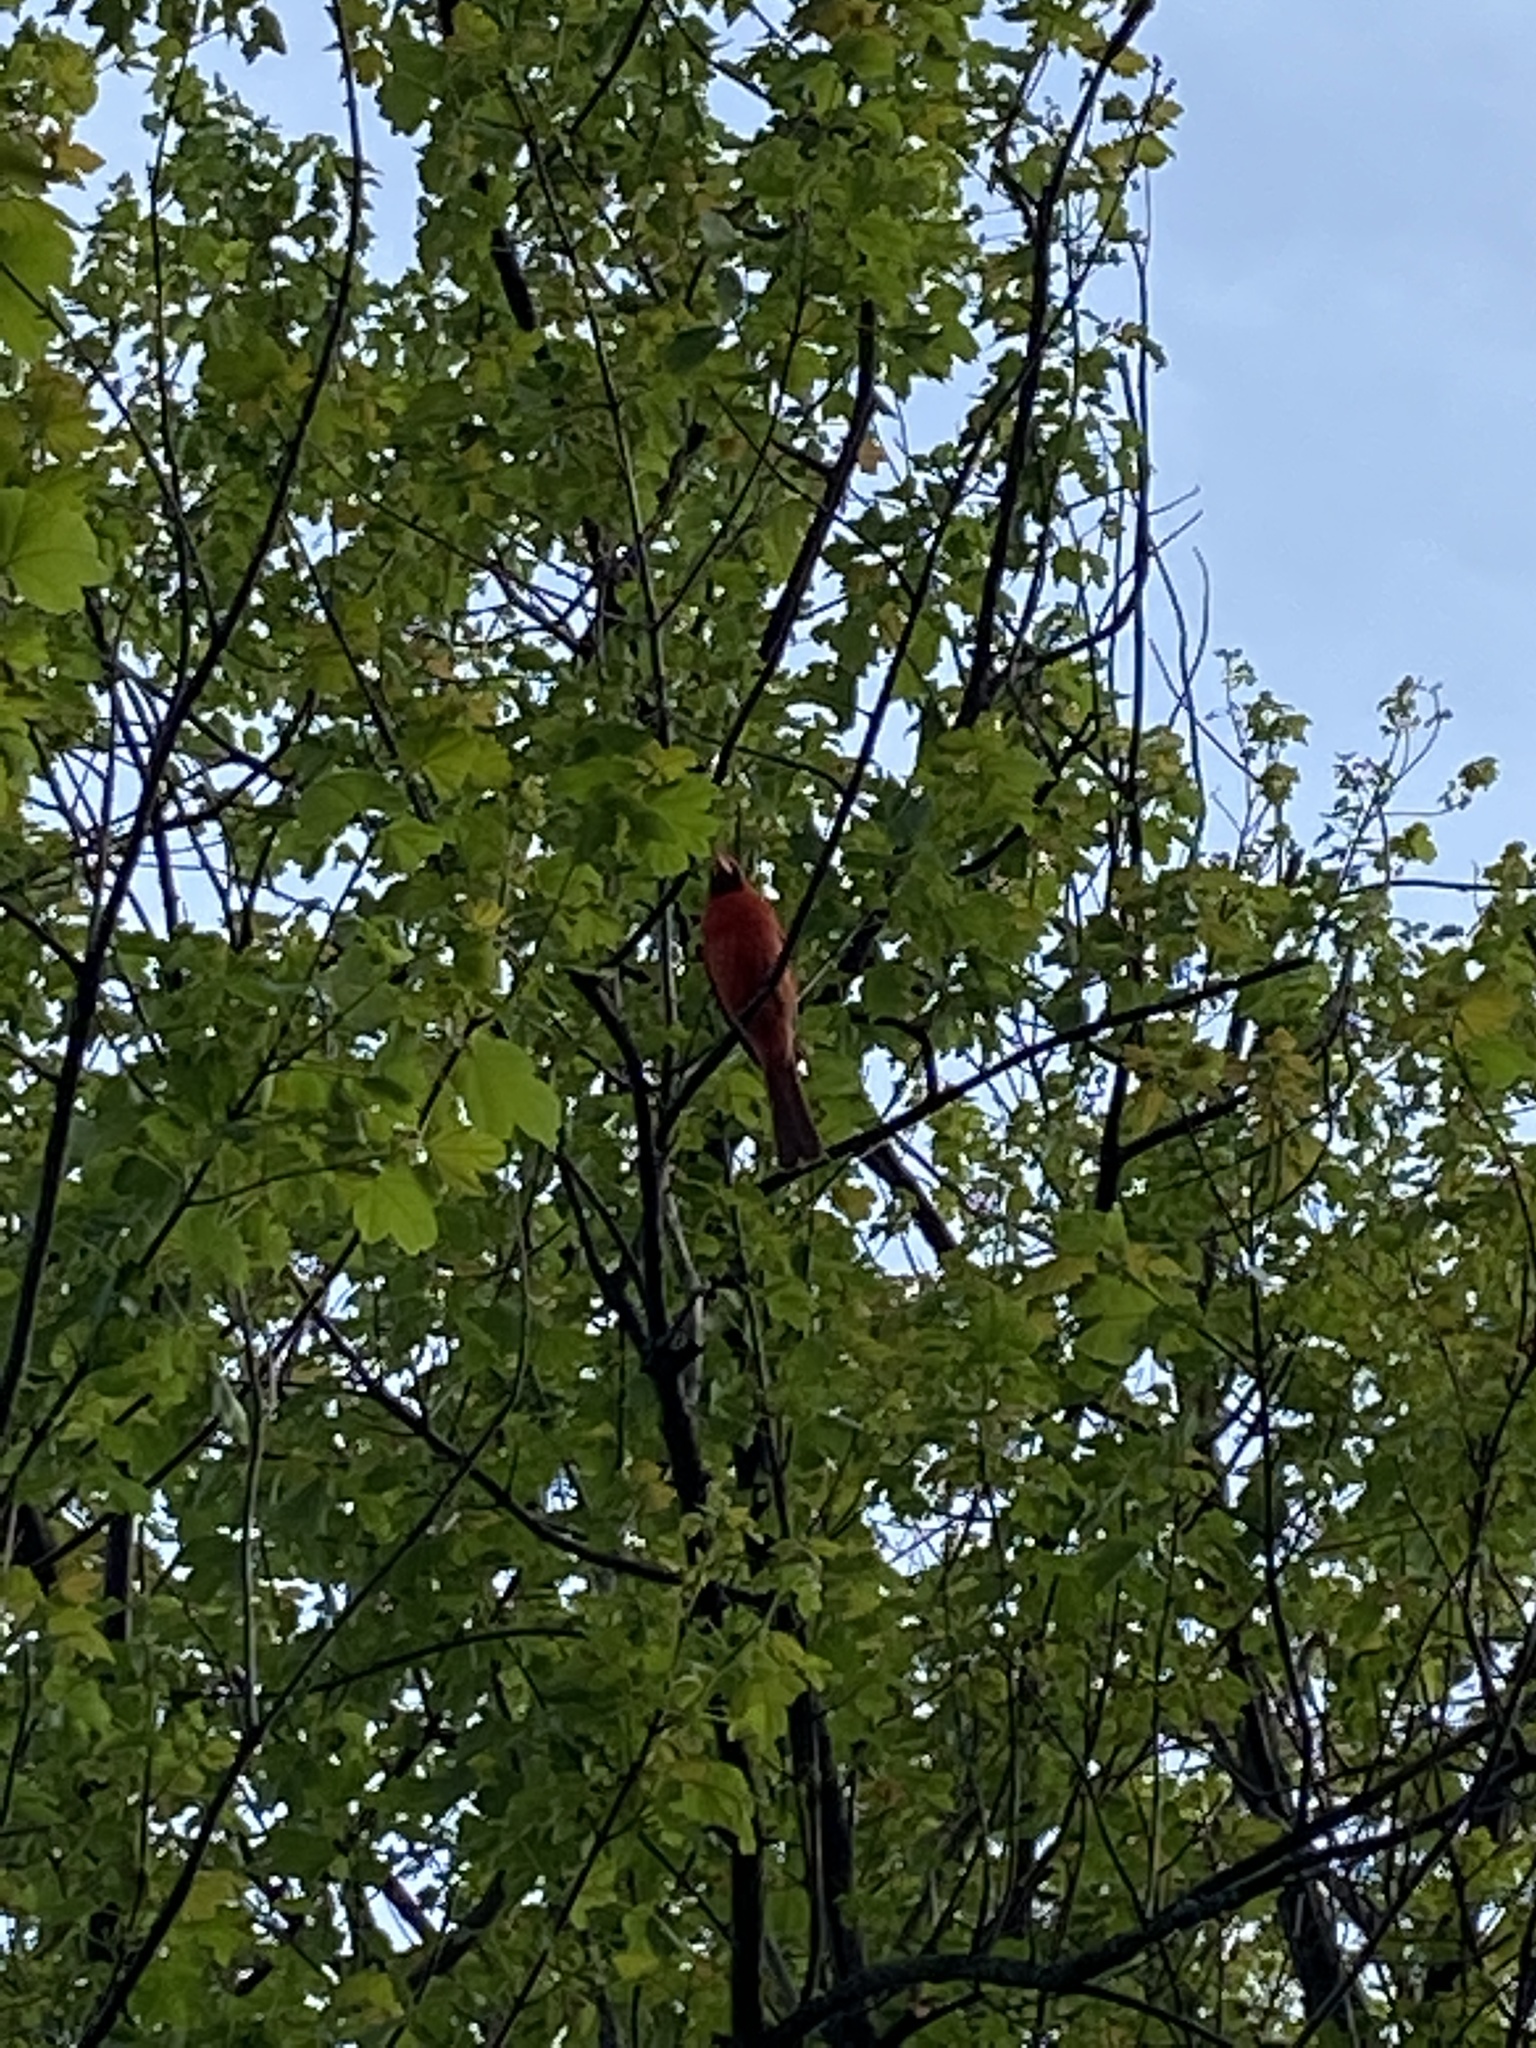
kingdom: Animalia
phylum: Chordata
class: Aves
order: Passeriformes
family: Cardinalidae
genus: Cardinalis
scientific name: Cardinalis cardinalis
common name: Northern cardinal
